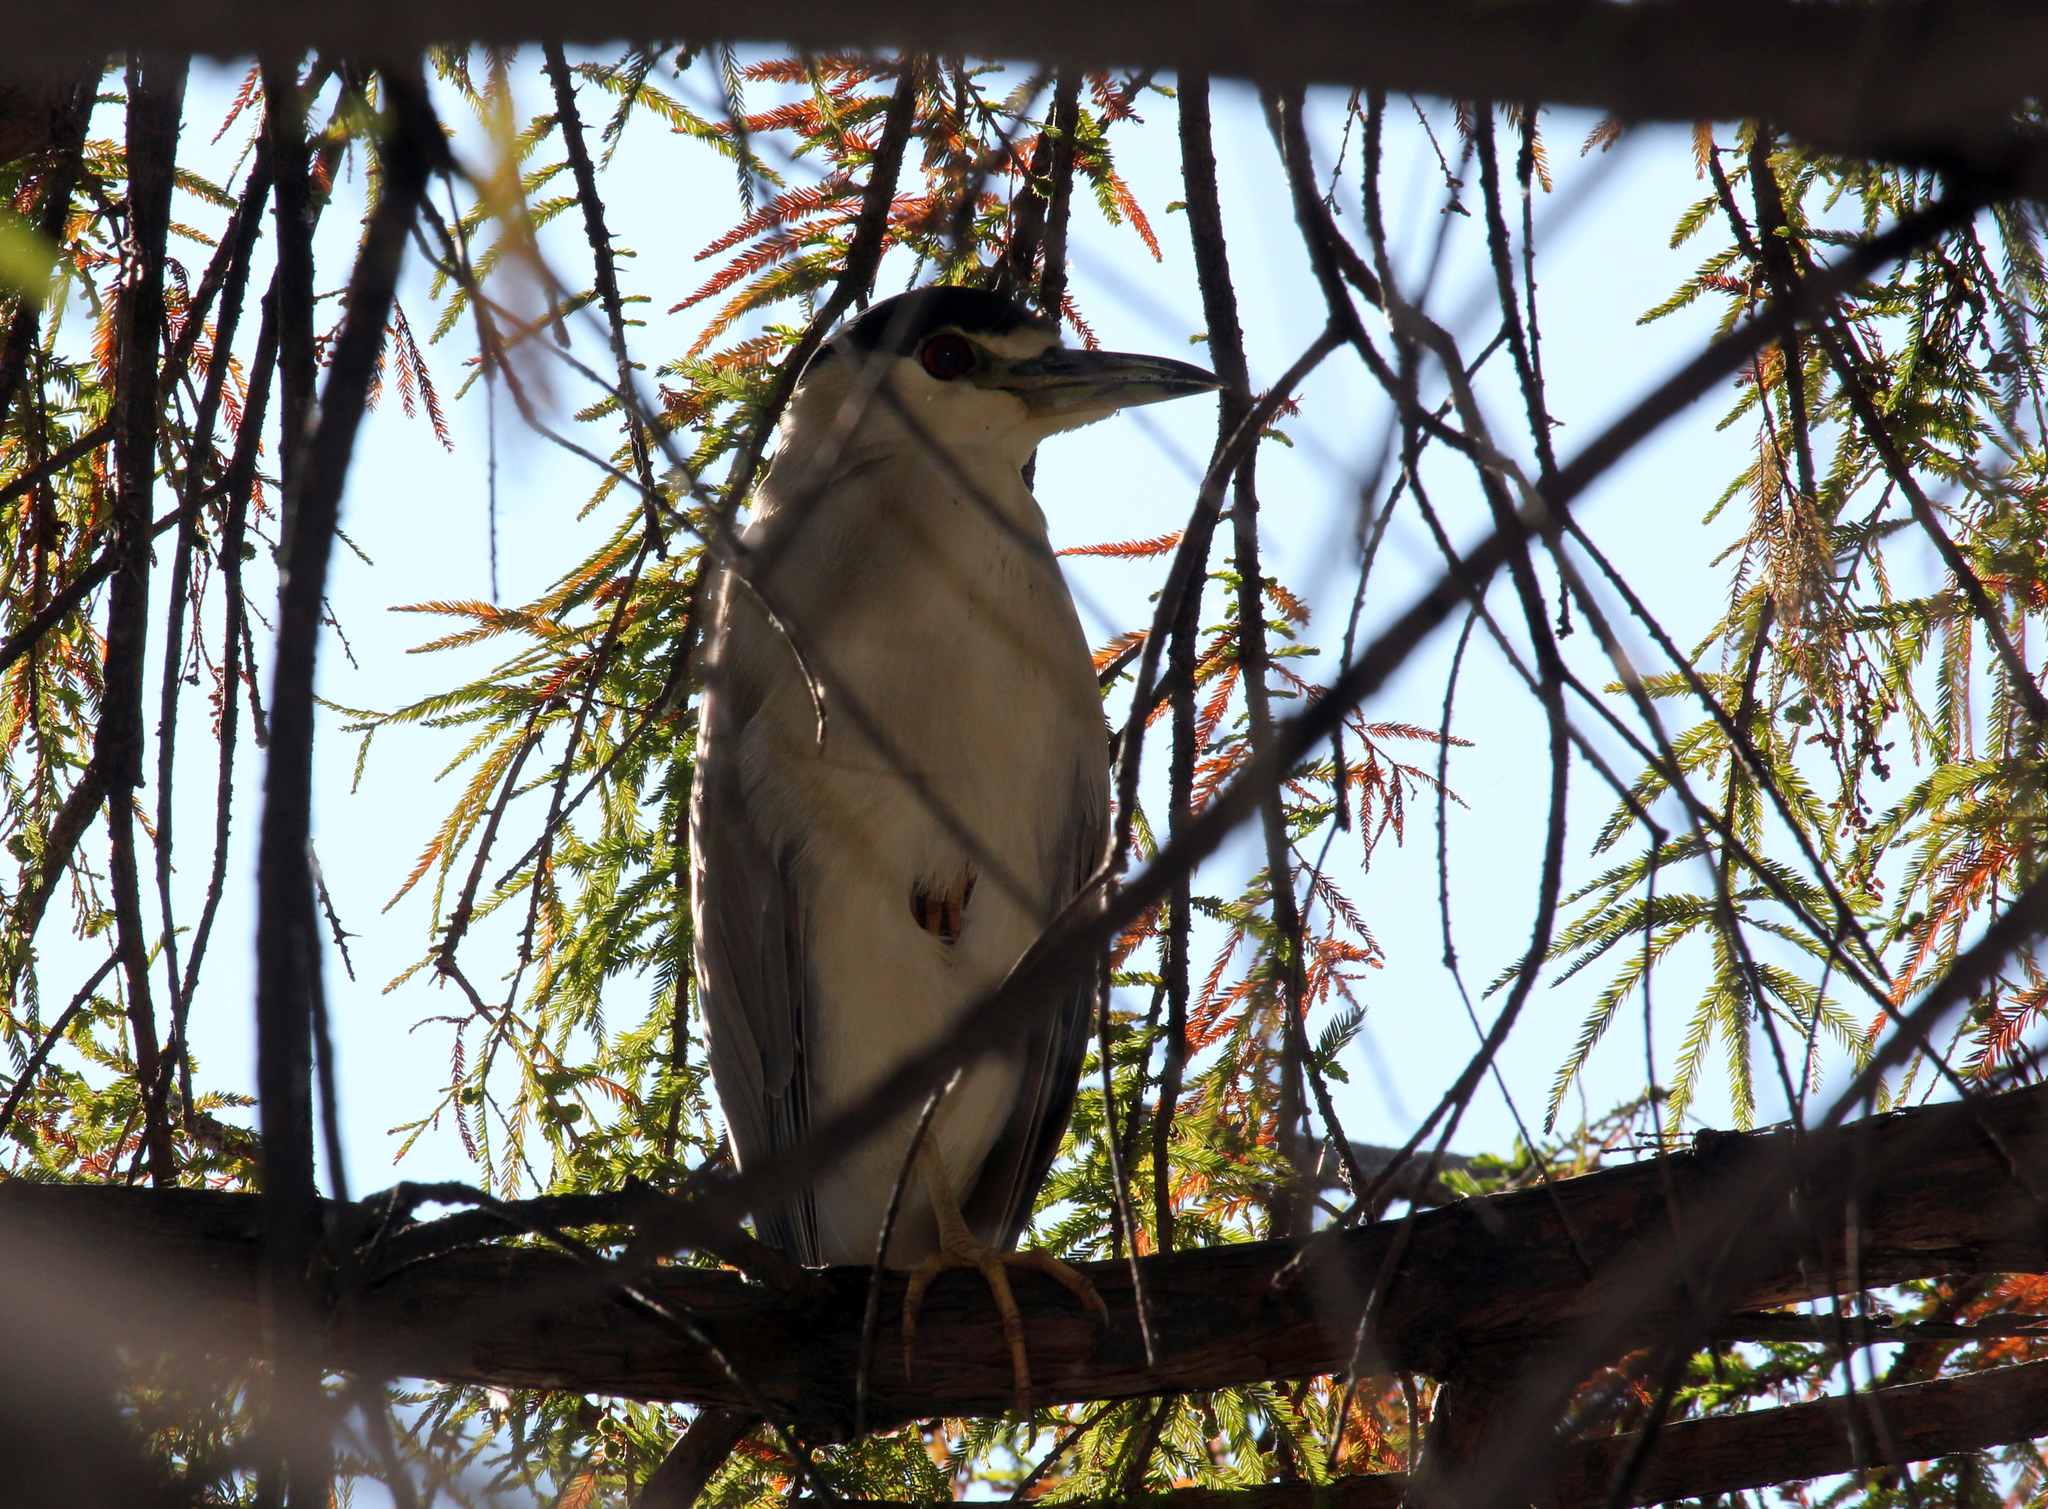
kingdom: Animalia
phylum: Chordata
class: Aves
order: Pelecaniformes
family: Ardeidae
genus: Nycticorax
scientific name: Nycticorax nycticorax
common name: Black-crowned night heron
